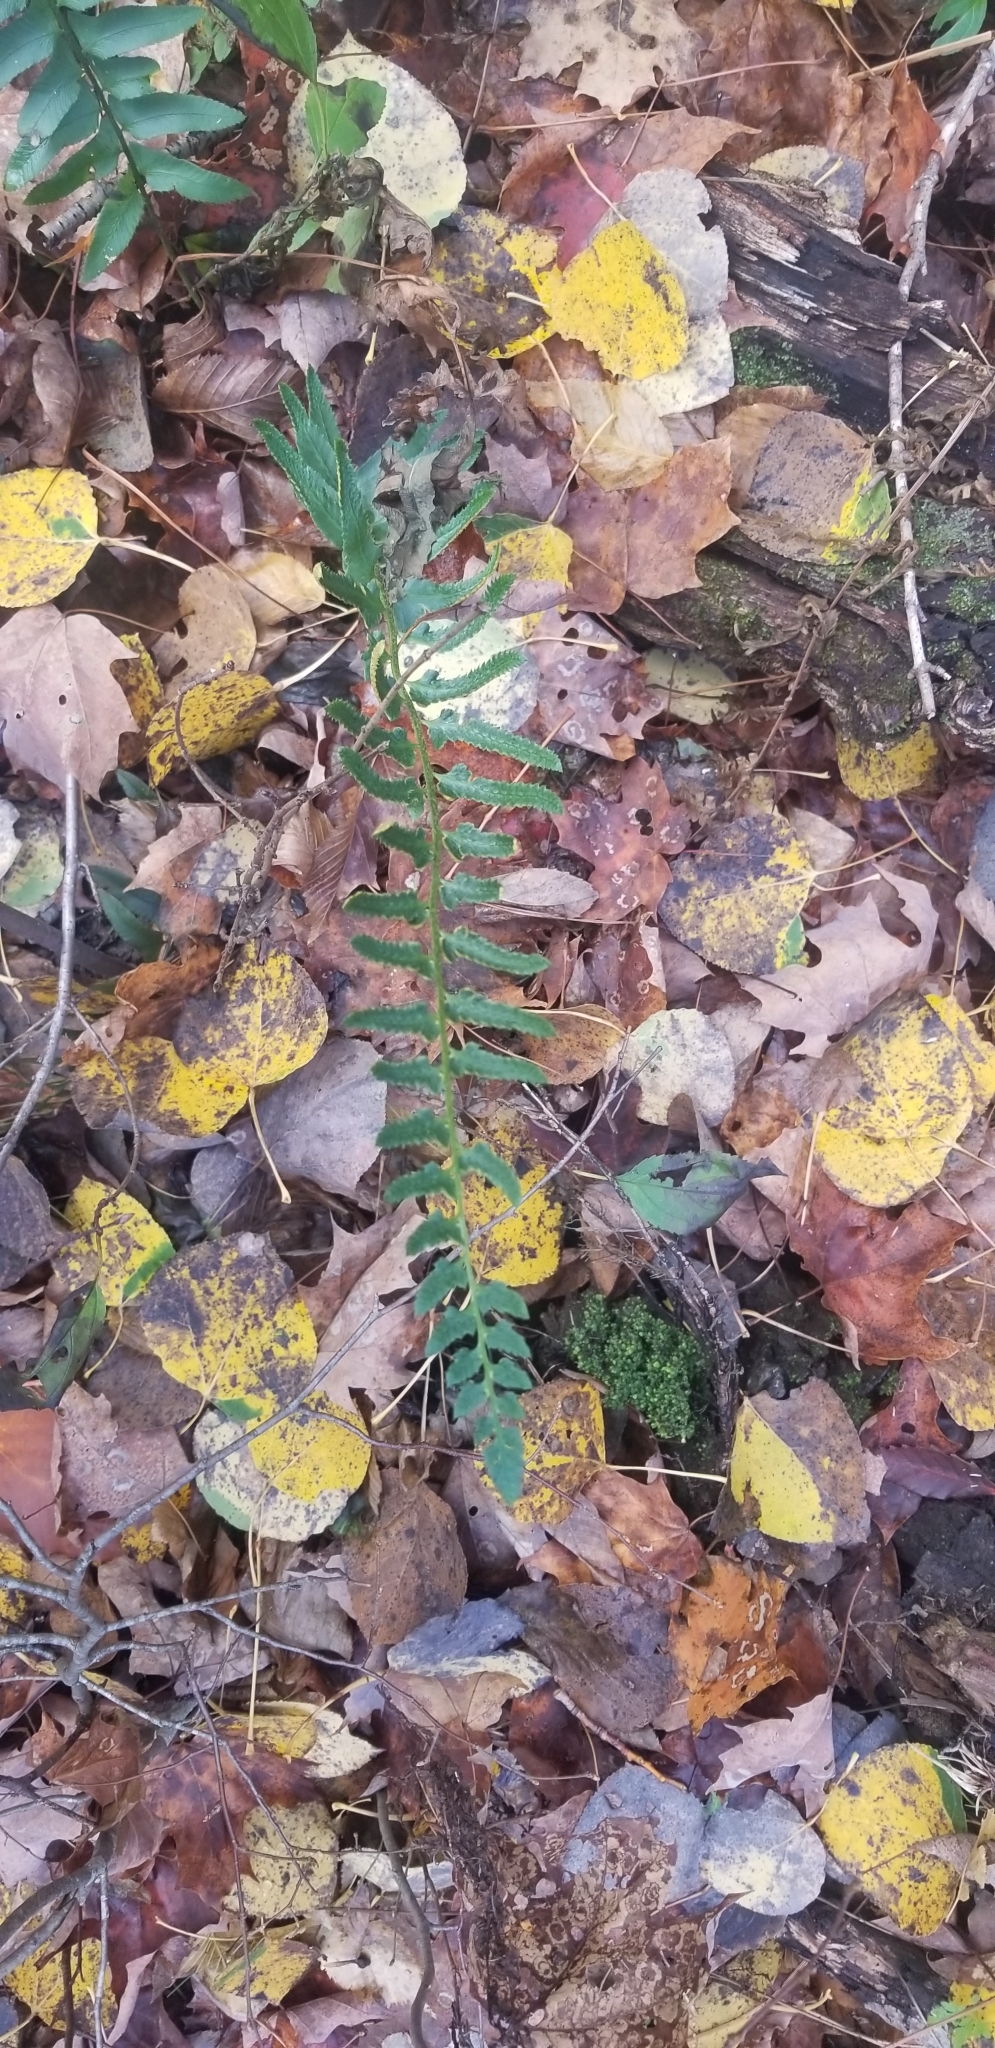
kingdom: Plantae
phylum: Tracheophyta
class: Polypodiopsida
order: Polypodiales
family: Dryopteridaceae
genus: Polystichum
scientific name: Polystichum acrostichoides
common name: Christmas fern
